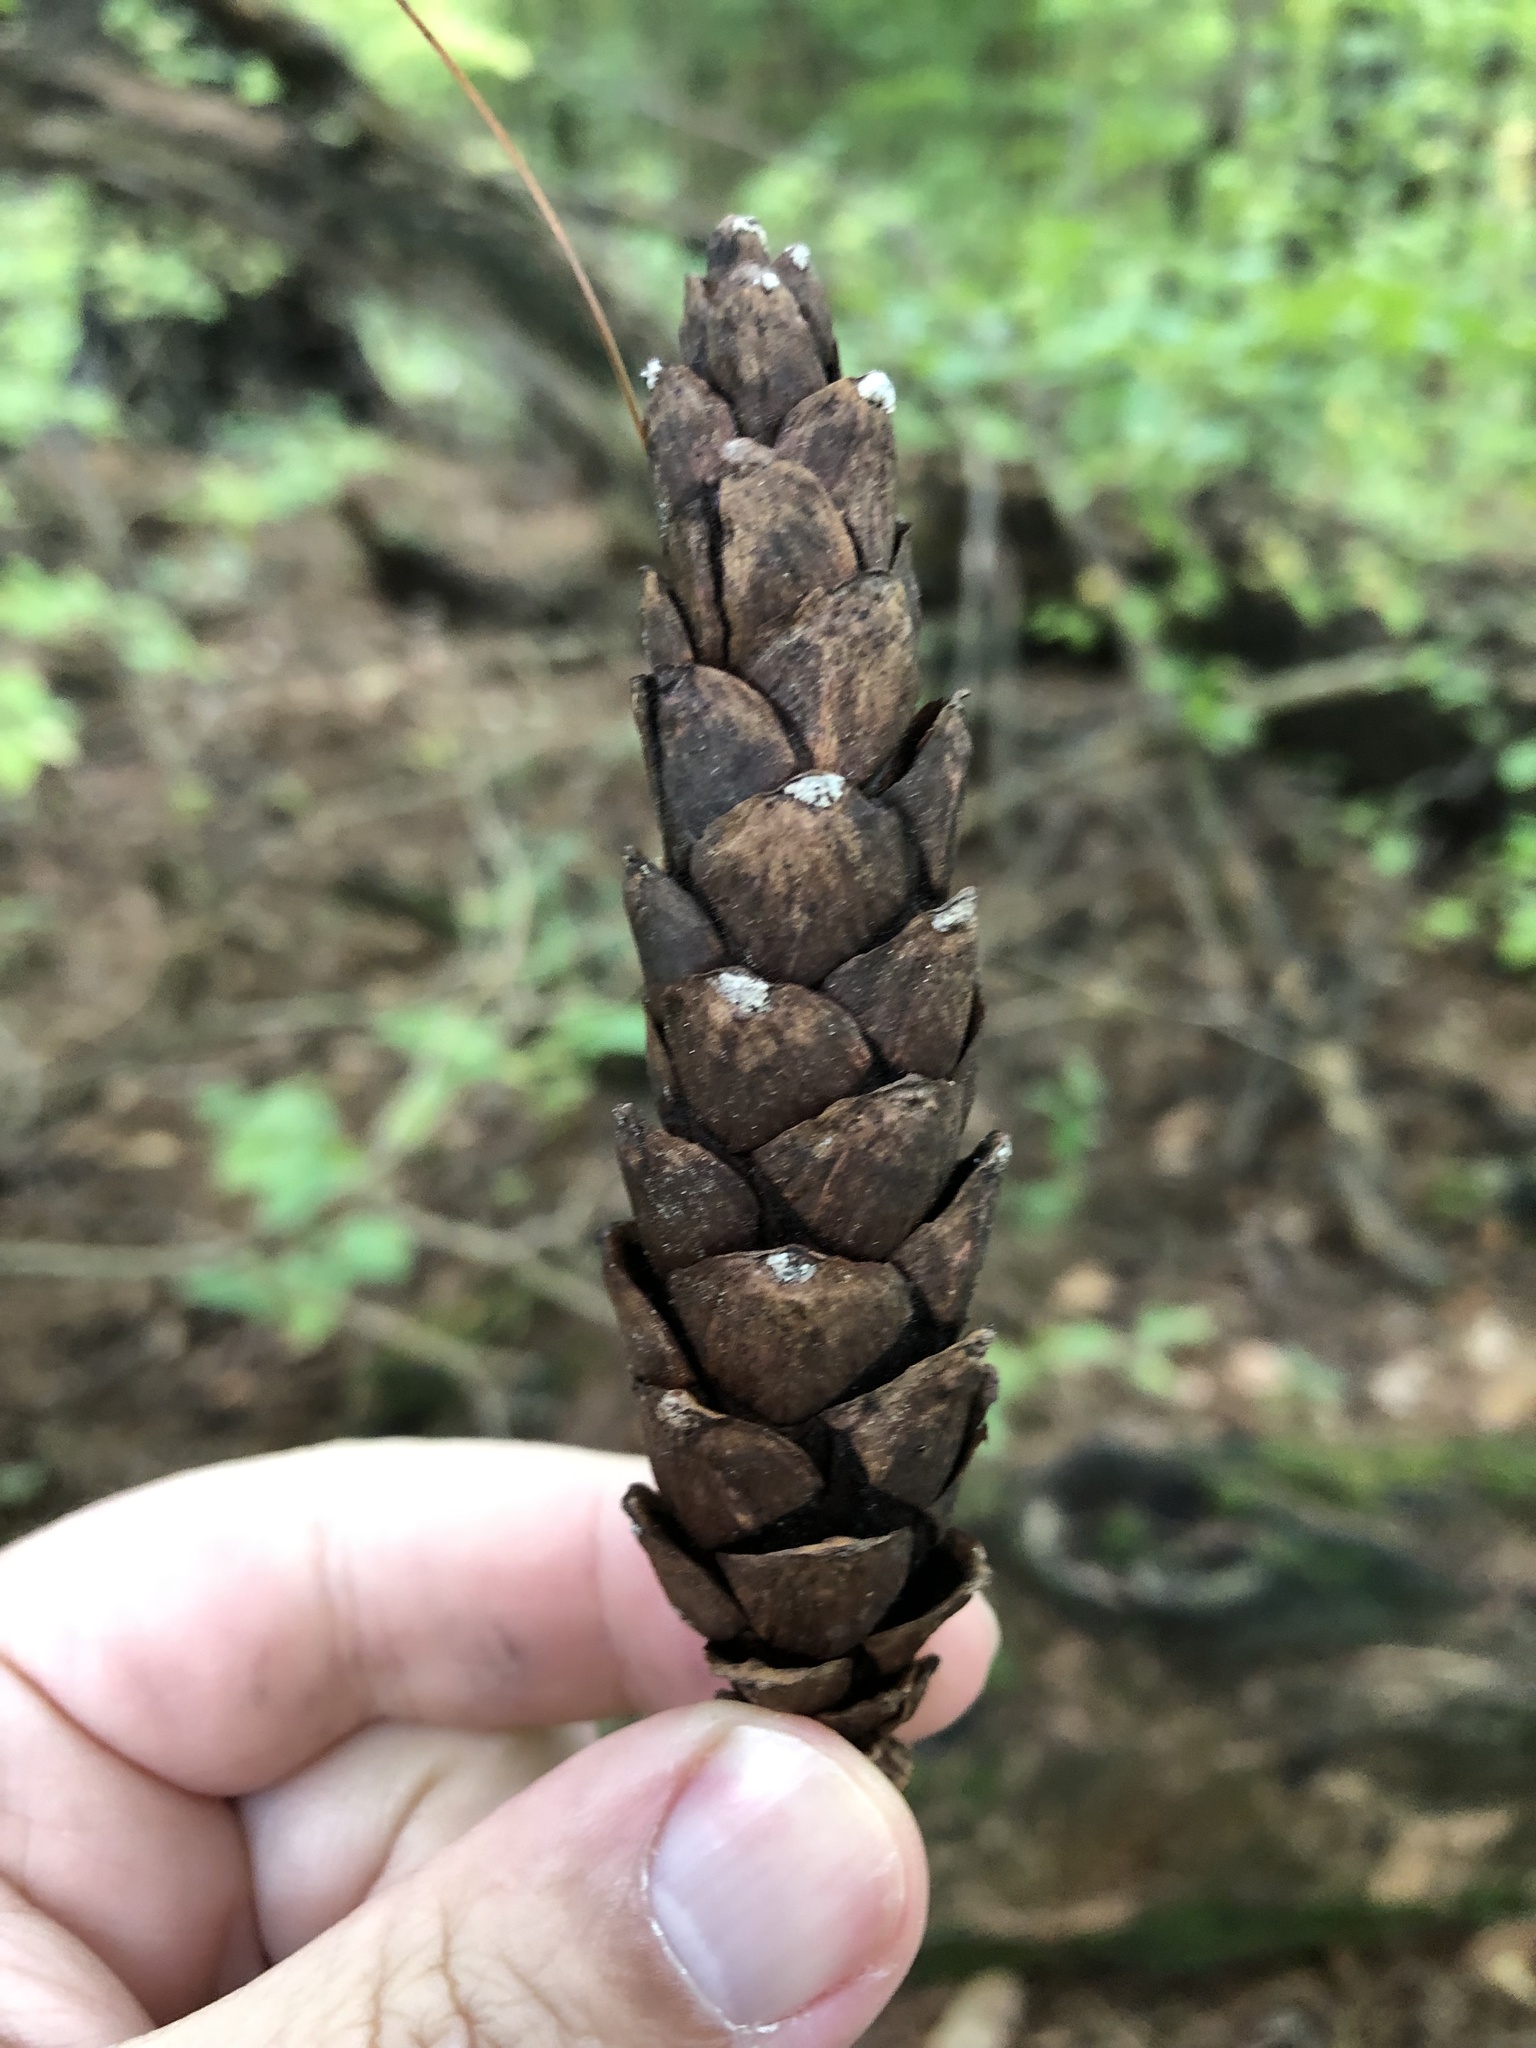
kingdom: Plantae
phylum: Tracheophyta
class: Pinopsida
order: Pinales
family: Pinaceae
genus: Pinus
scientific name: Pinus strobus
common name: Weymouth pine
